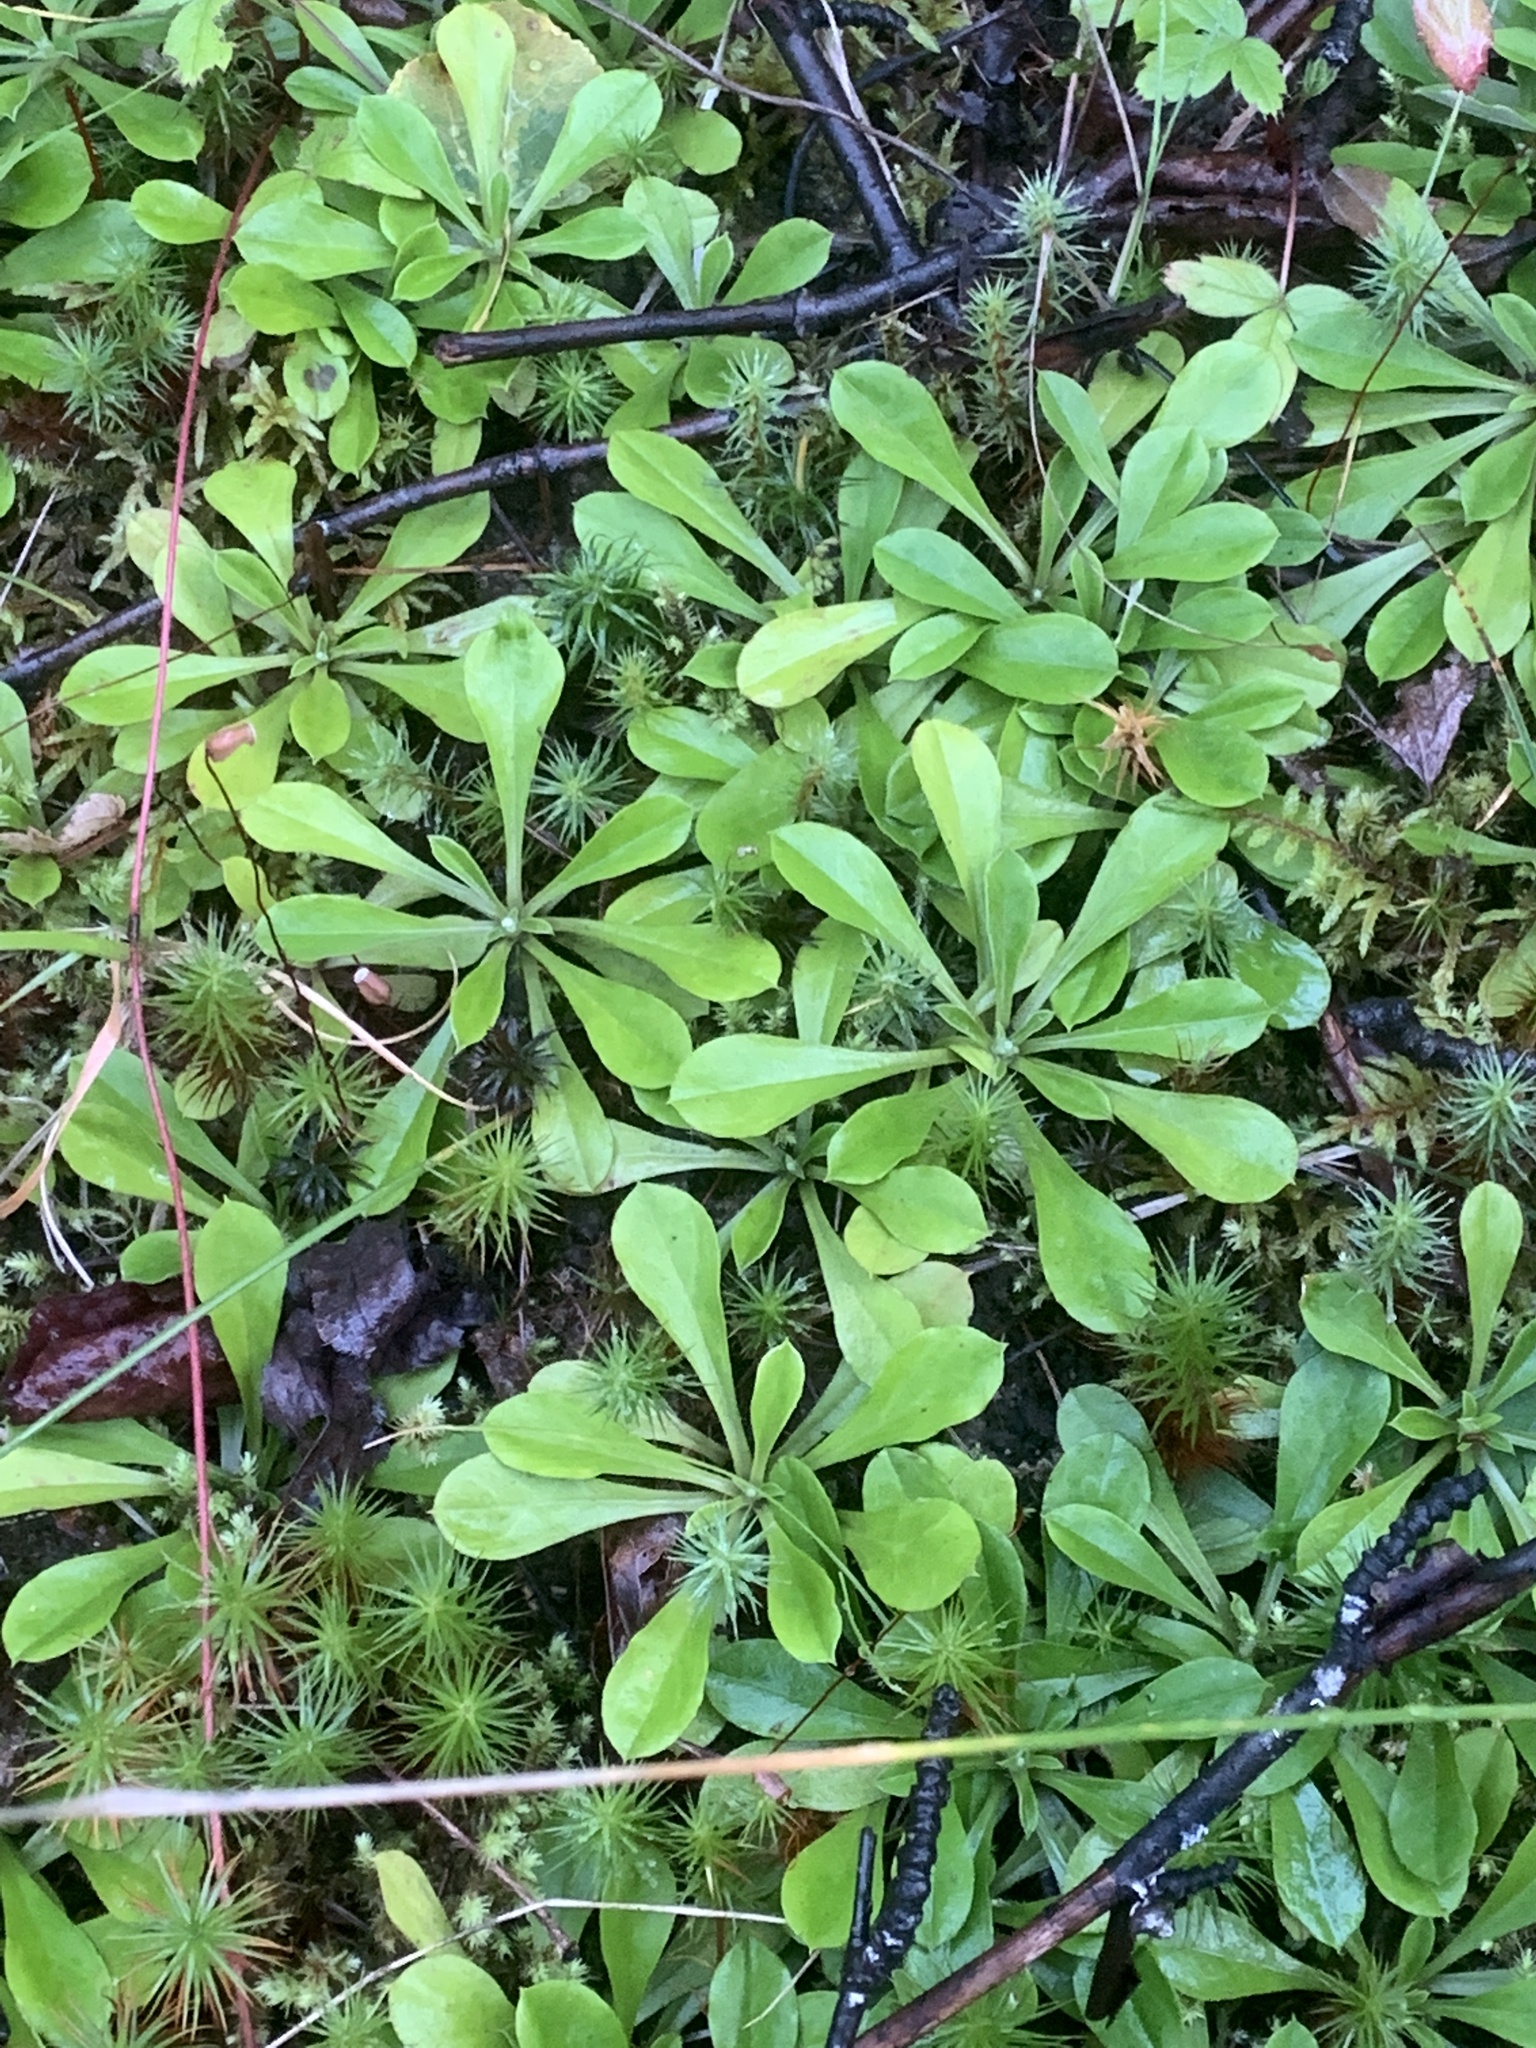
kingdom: Plantae
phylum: Tracheophyta
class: Magnoliopsida
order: Asterales
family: Asteraceae
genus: Antennaria
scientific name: Antennaria howellii
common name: Howell's pussytoes
